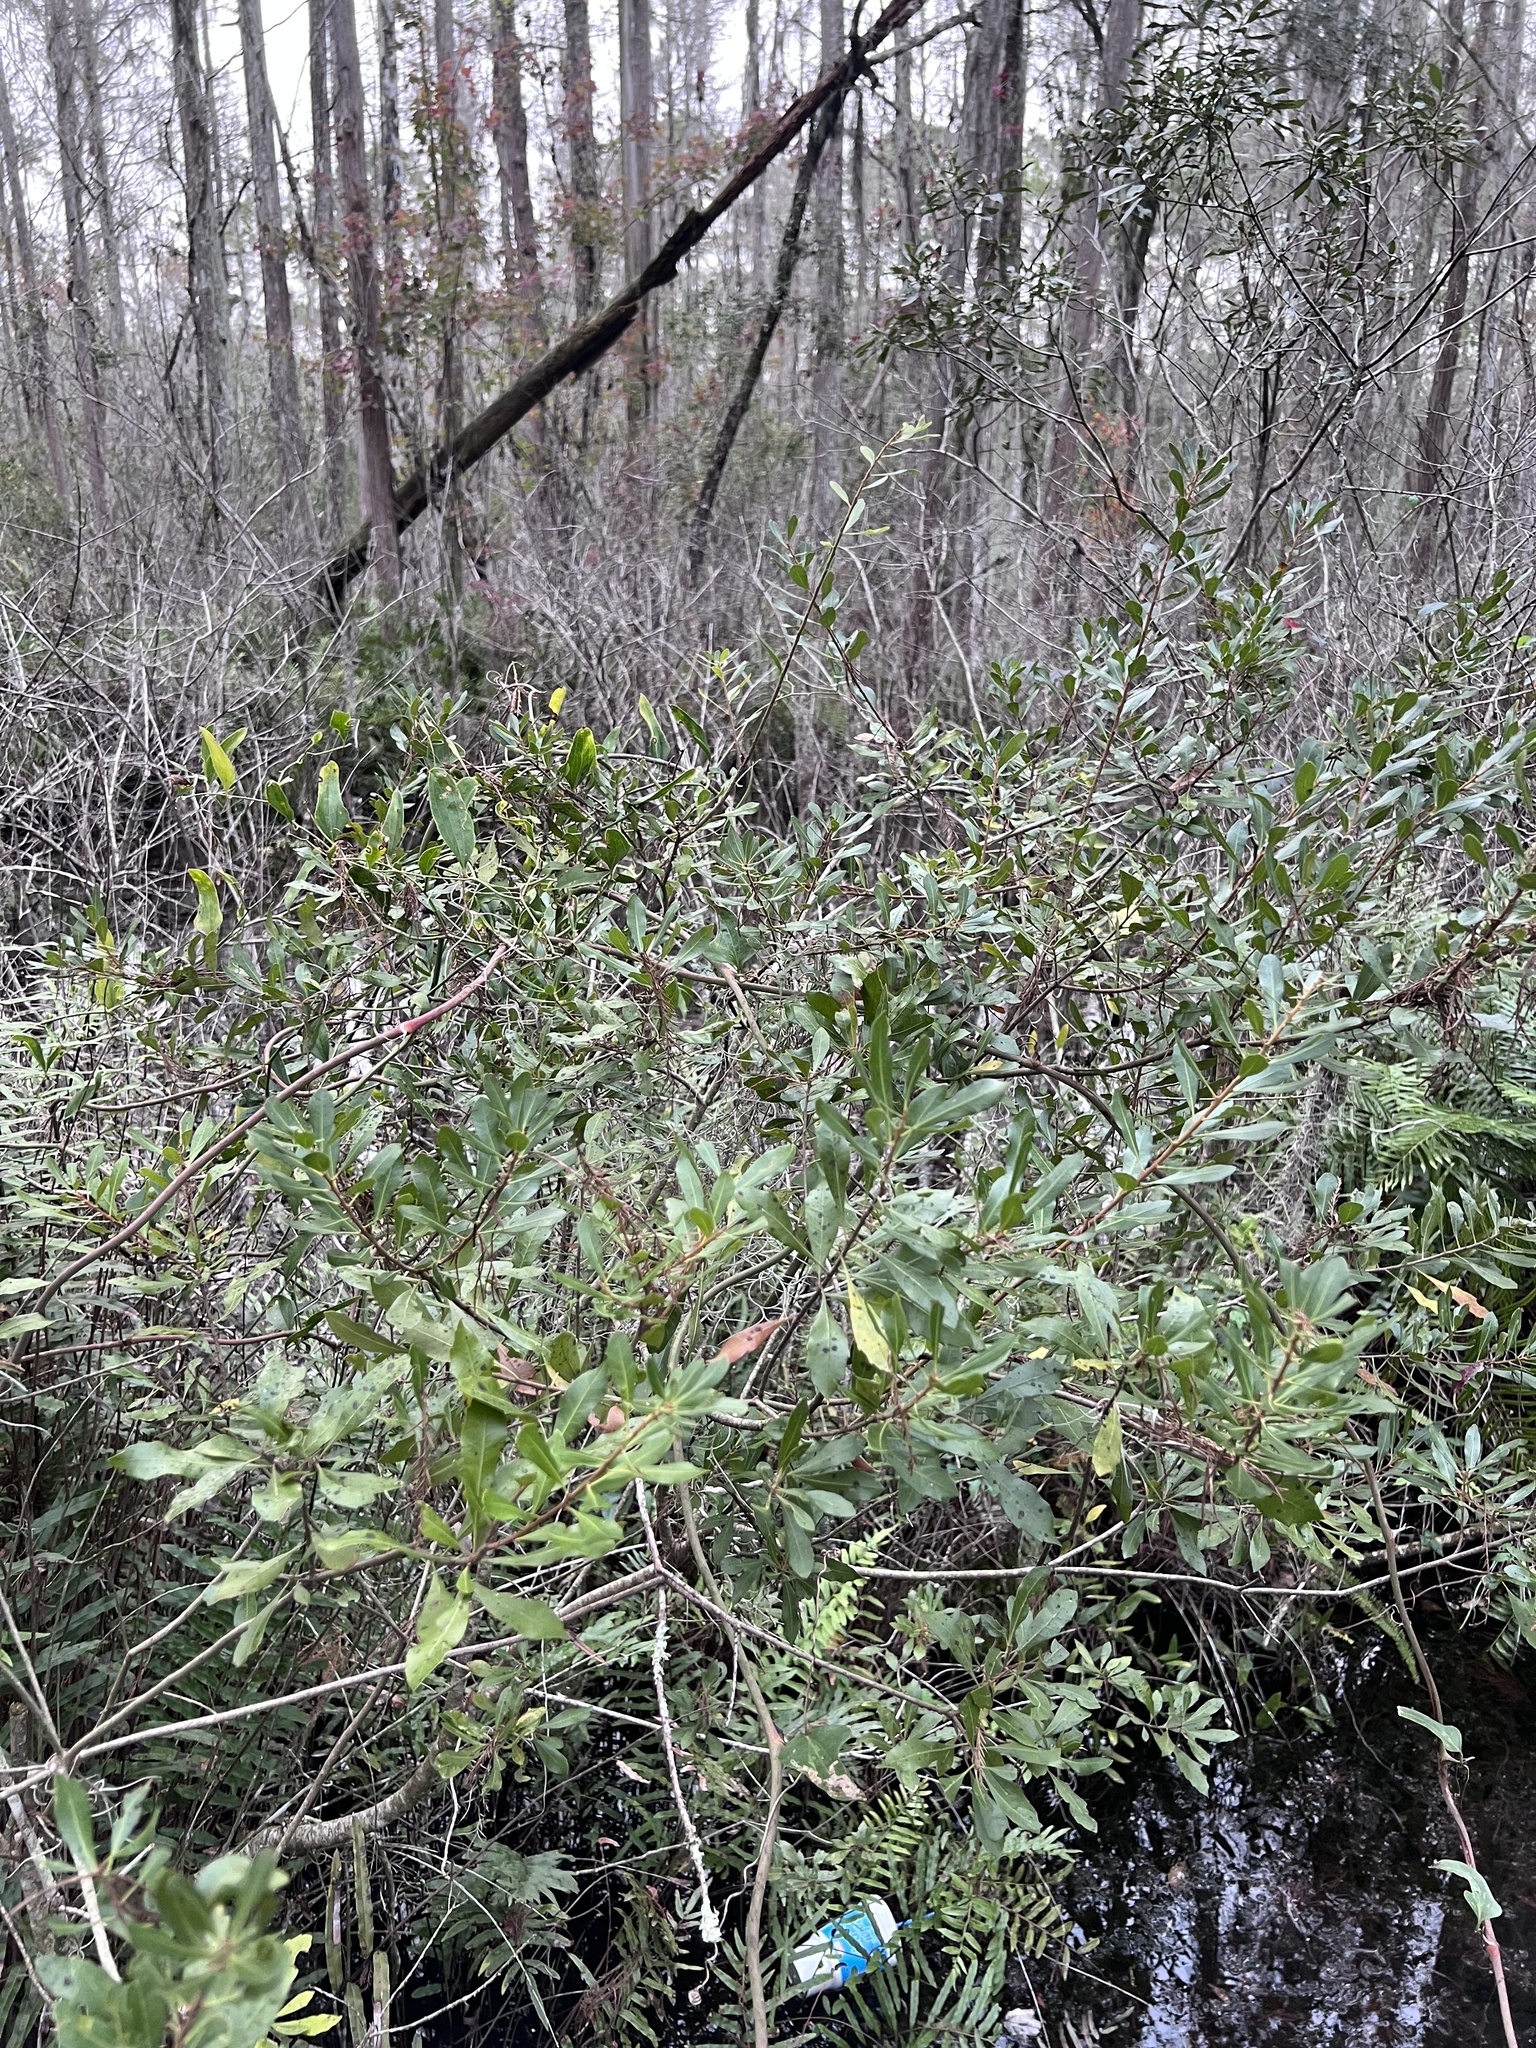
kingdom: Plantae
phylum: Tracheophyta
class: Magnoliopsida
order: Fagales
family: Myricaceae
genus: Morella
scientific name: Morella cerifera
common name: Wax myrtle
